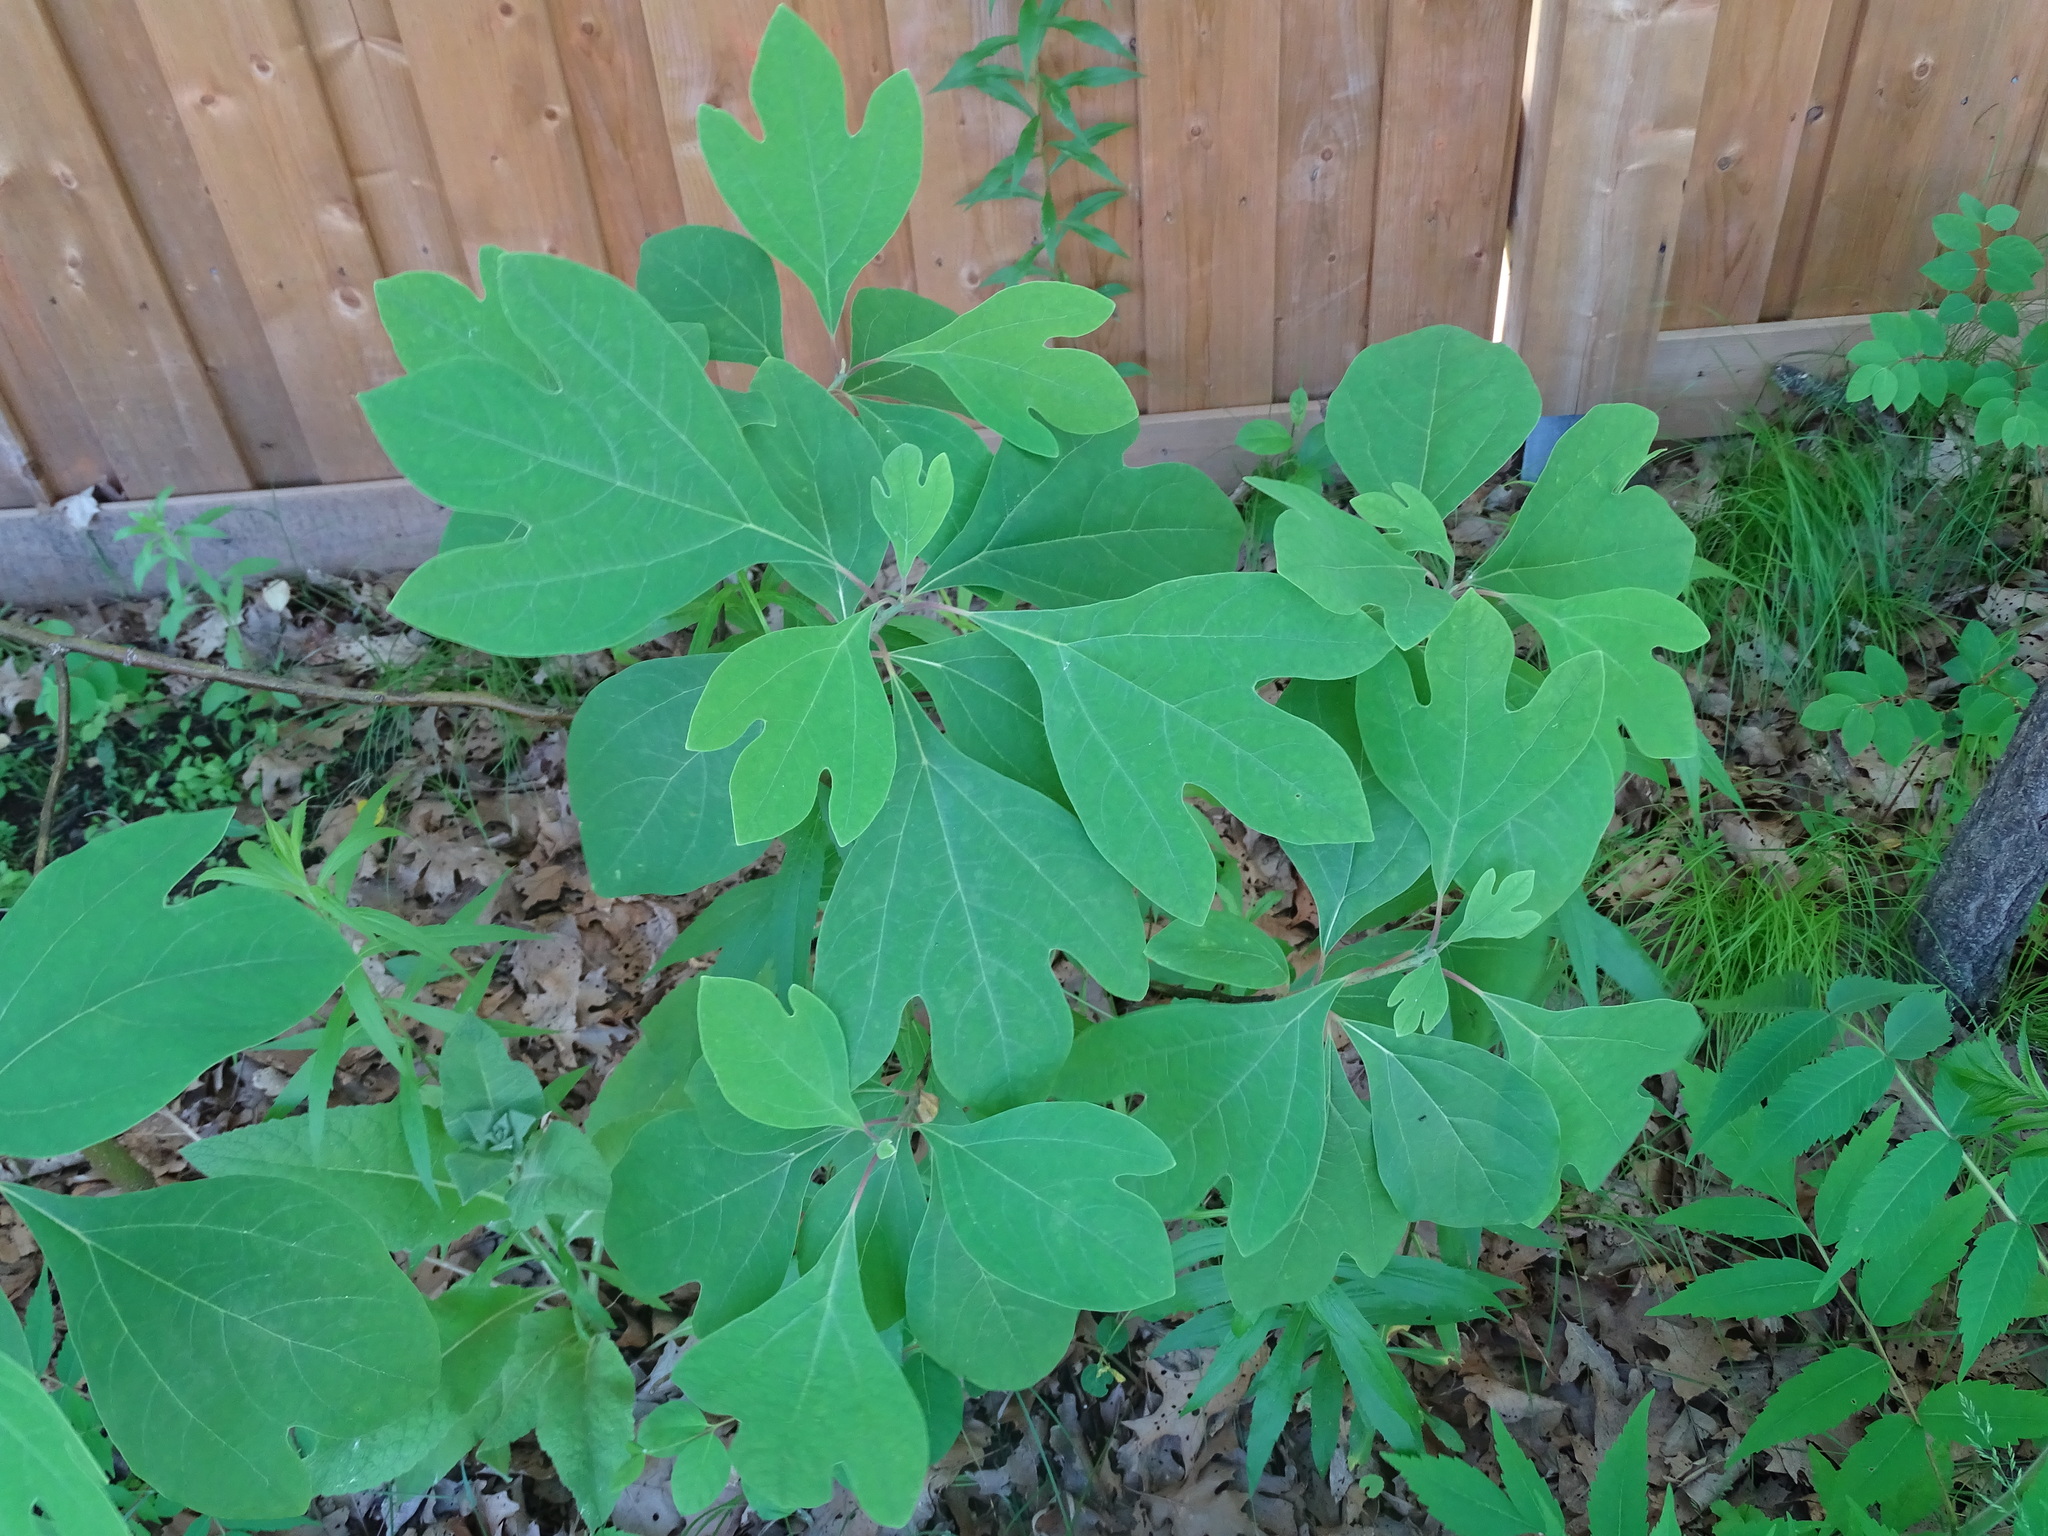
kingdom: Plantae
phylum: Tracheophyta
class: Magnoliopsida
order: Laurales
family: Lauraceae
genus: Sassafras
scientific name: Sassafras albidum
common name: Sassafras
